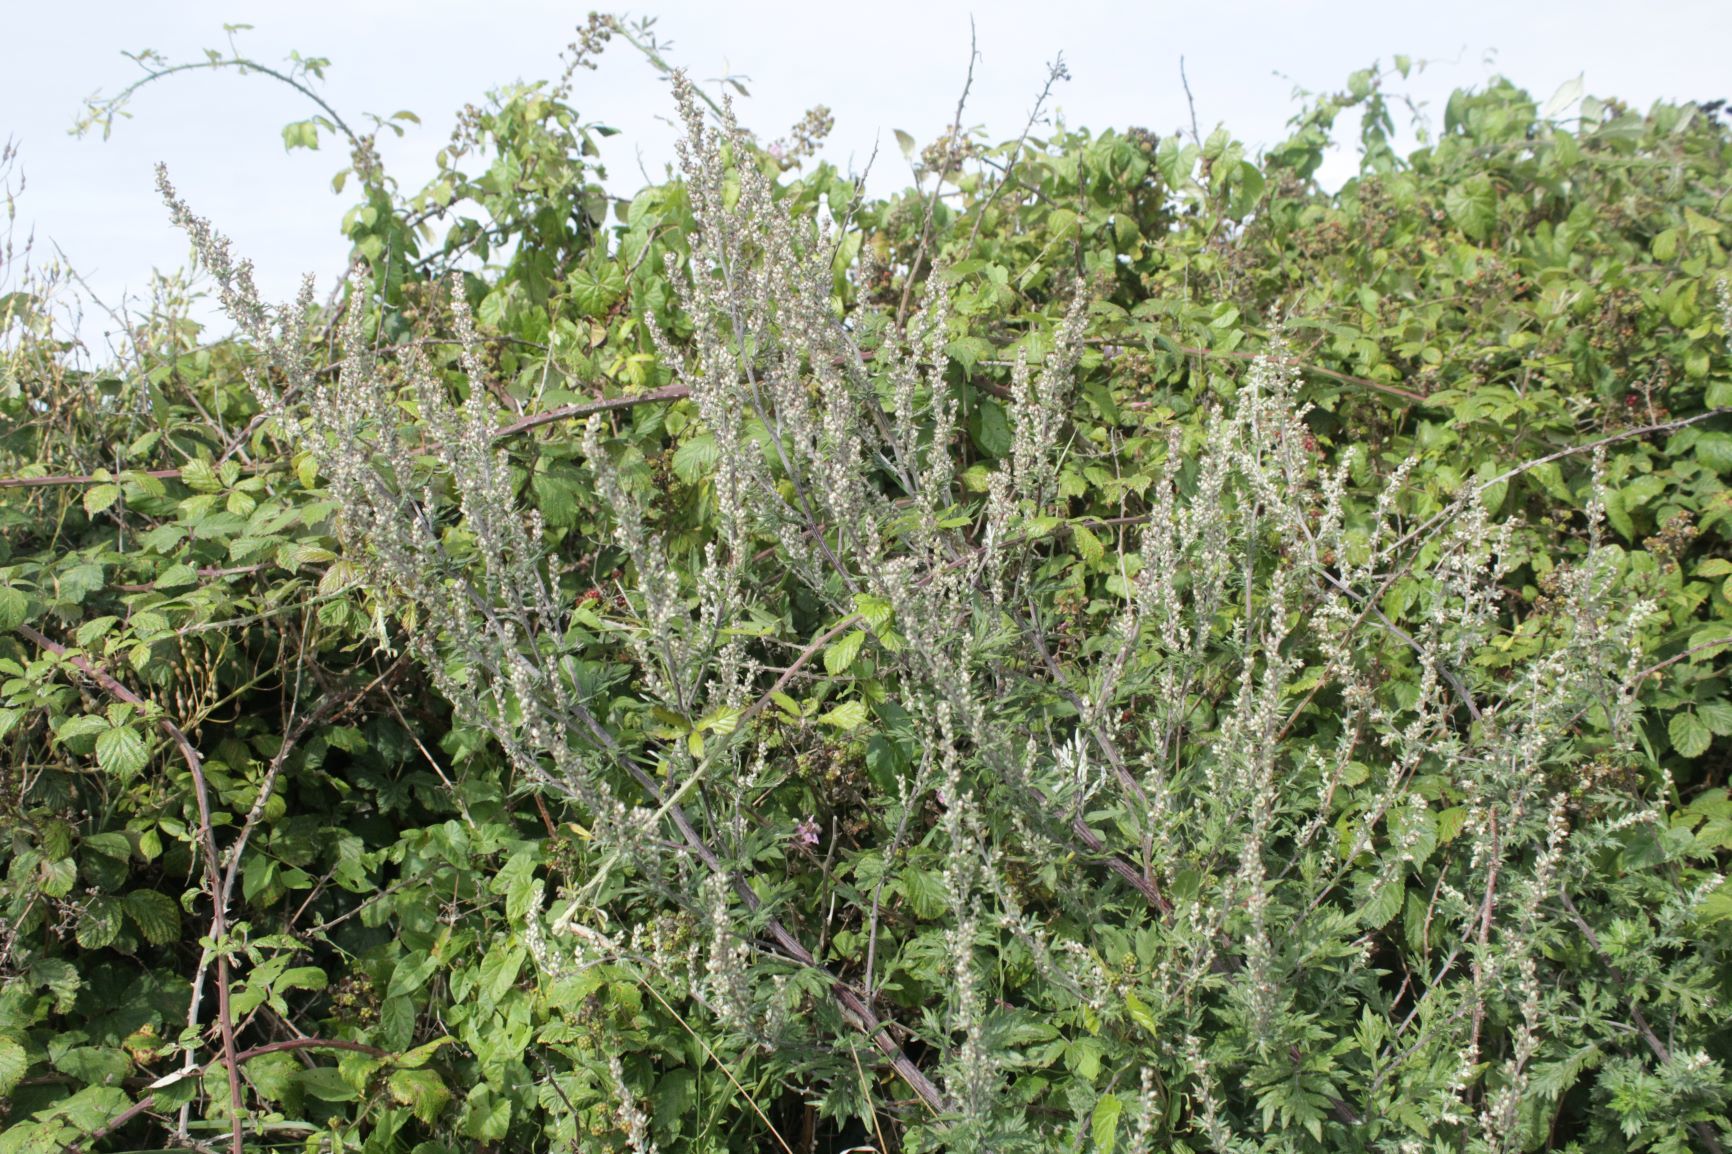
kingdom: Plantae
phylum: Tracheophyta
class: Magnoliopsida
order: Asterales
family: Asteraceae
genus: Artemisia
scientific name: Artemisia vulgaris
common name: Mugwort
